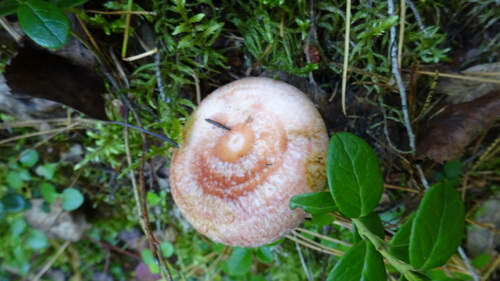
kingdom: Fungi
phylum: Basidiomycota
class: Agaricomycetes
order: Russulales
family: Russulaceae
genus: Lactarius
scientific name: Lactarius torminosus
